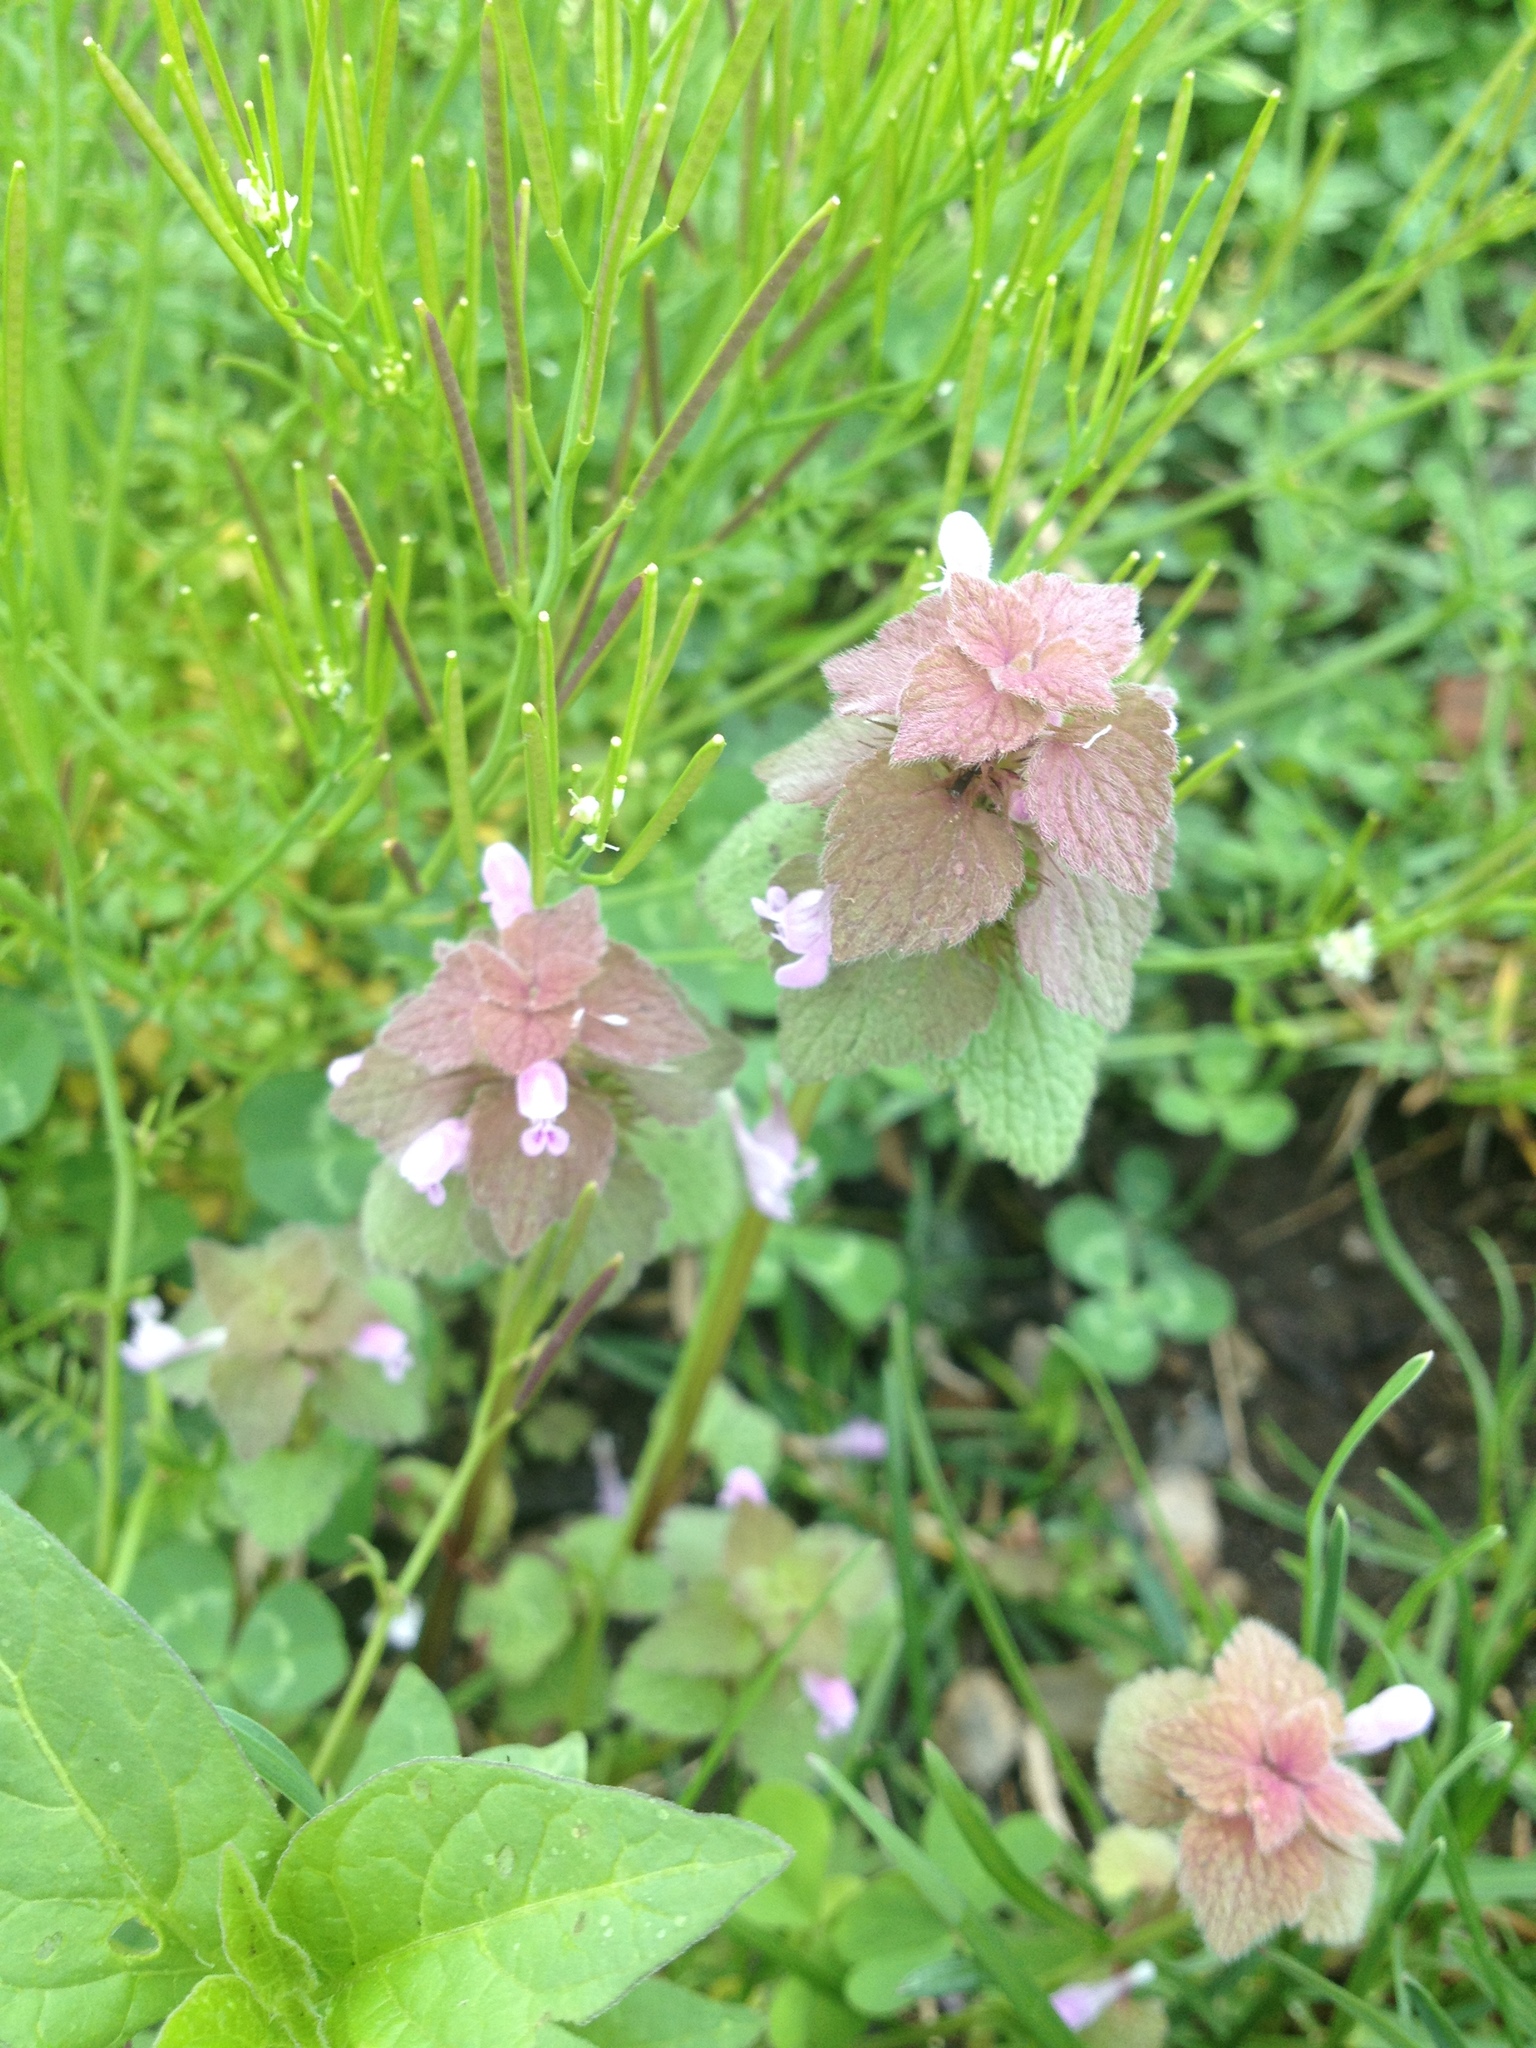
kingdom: Plantae
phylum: Tracheophyta
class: Magnoliopsida
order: Lamiales
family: Lamiaceae
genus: Lamium
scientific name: Lamium purpureum
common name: Red dead-nettle
